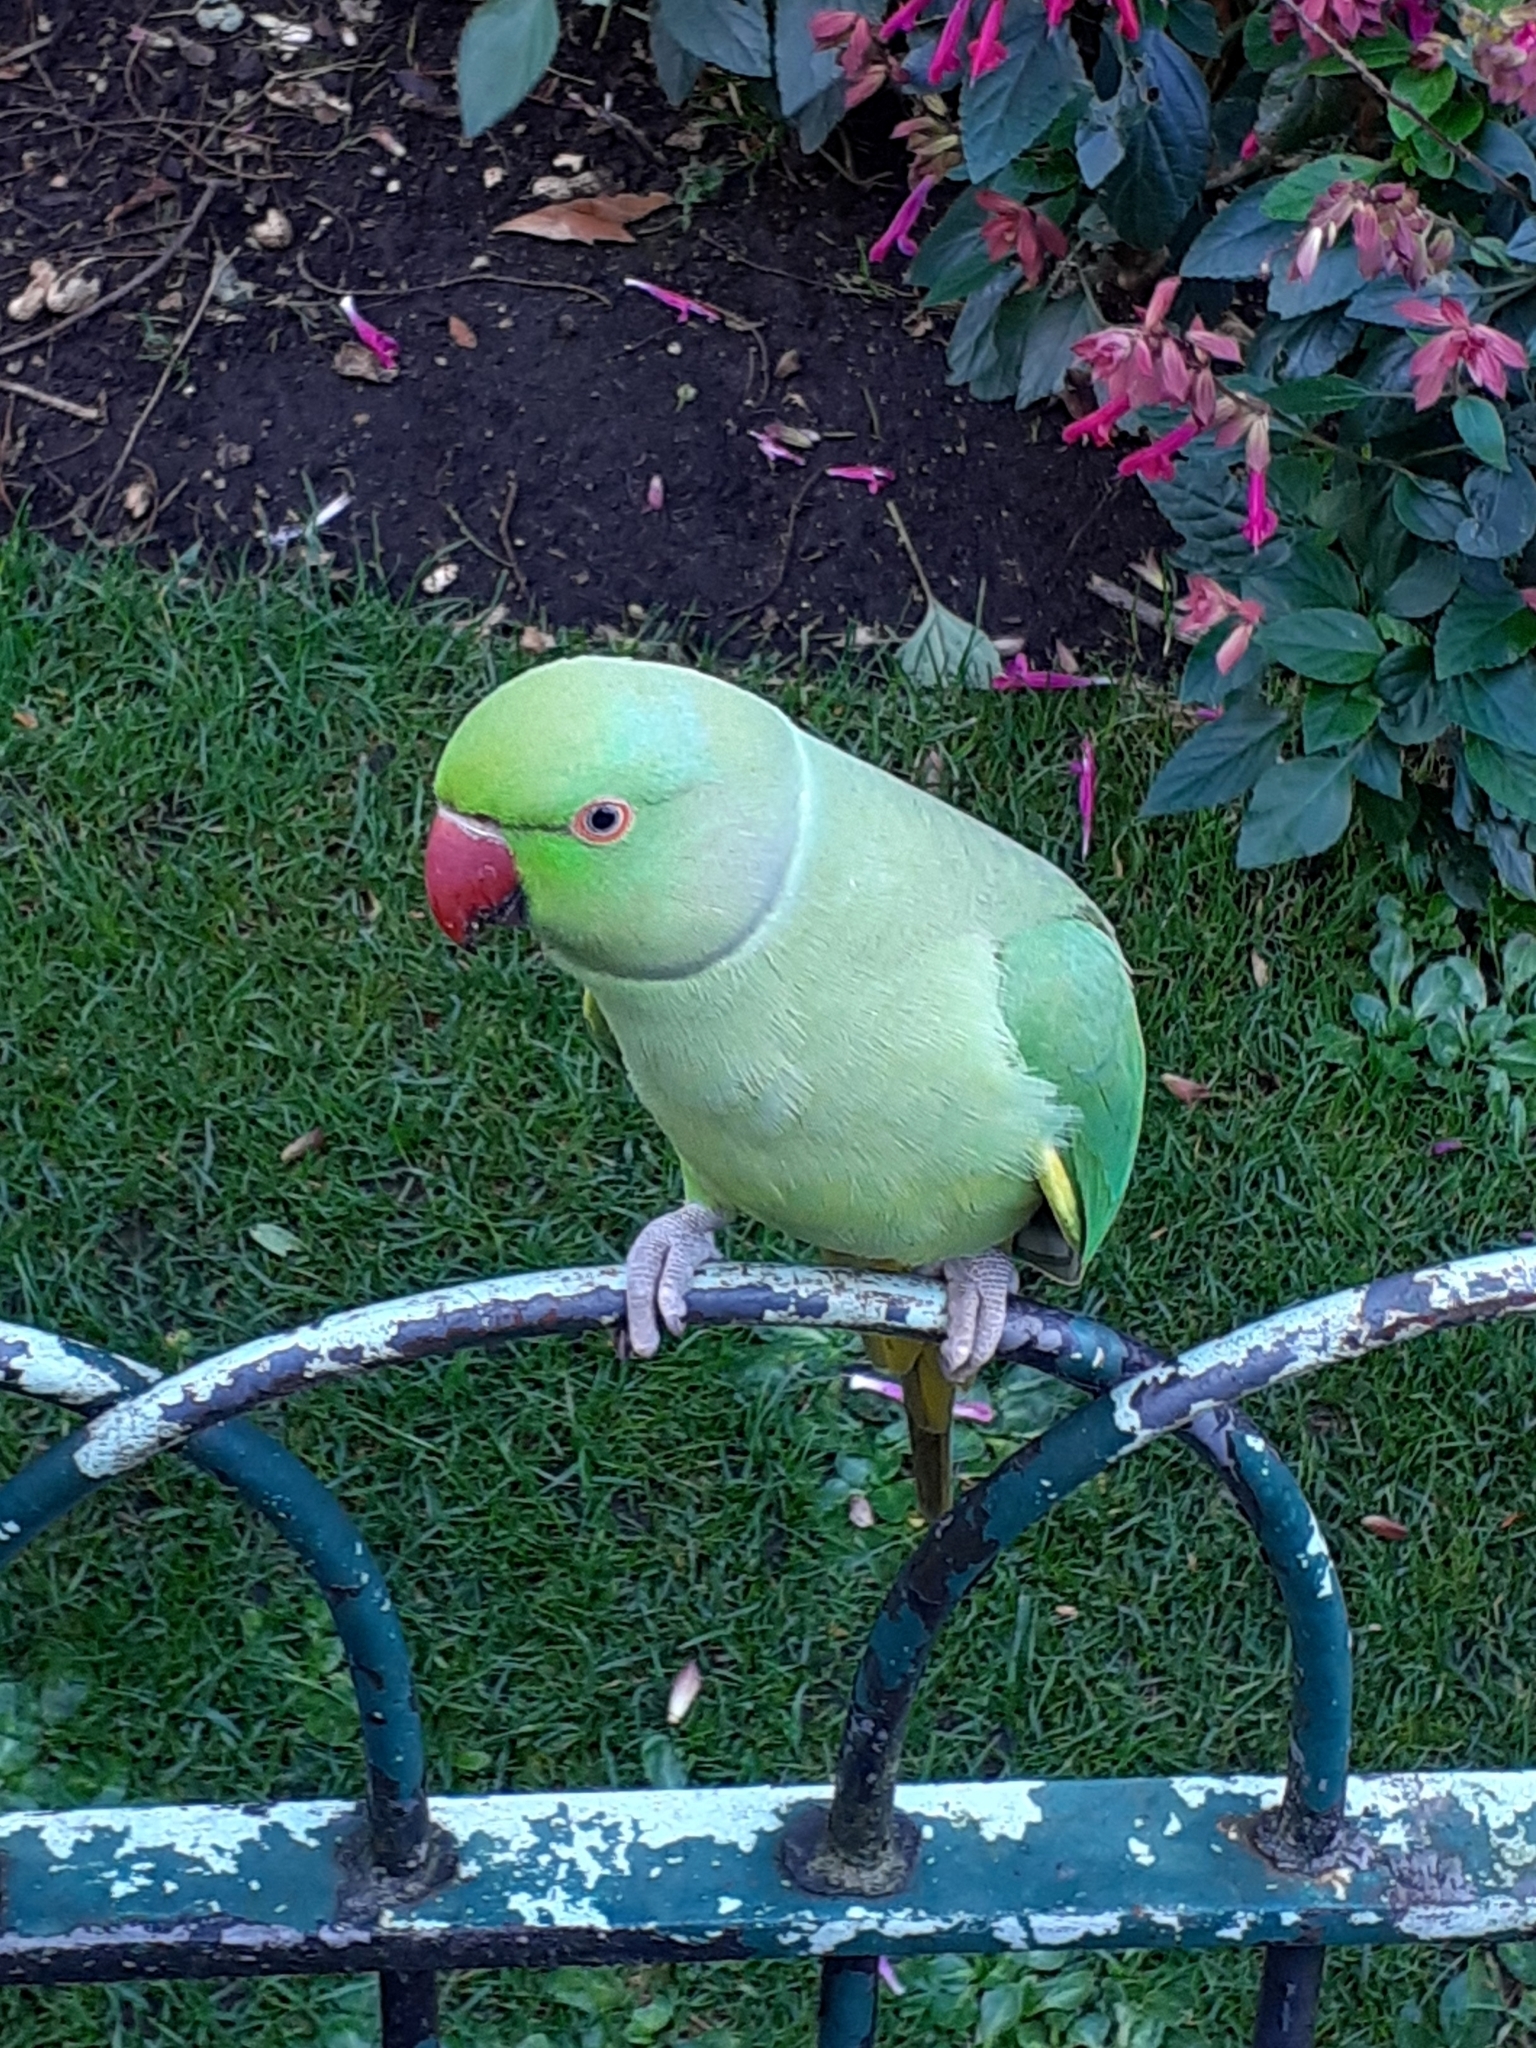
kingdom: Animalia
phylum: Chordata
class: Aves
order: Psittaciformes
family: Psittacidae
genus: Psittacula
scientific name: Psittacula krameri
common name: Rose-ringed parakeet
